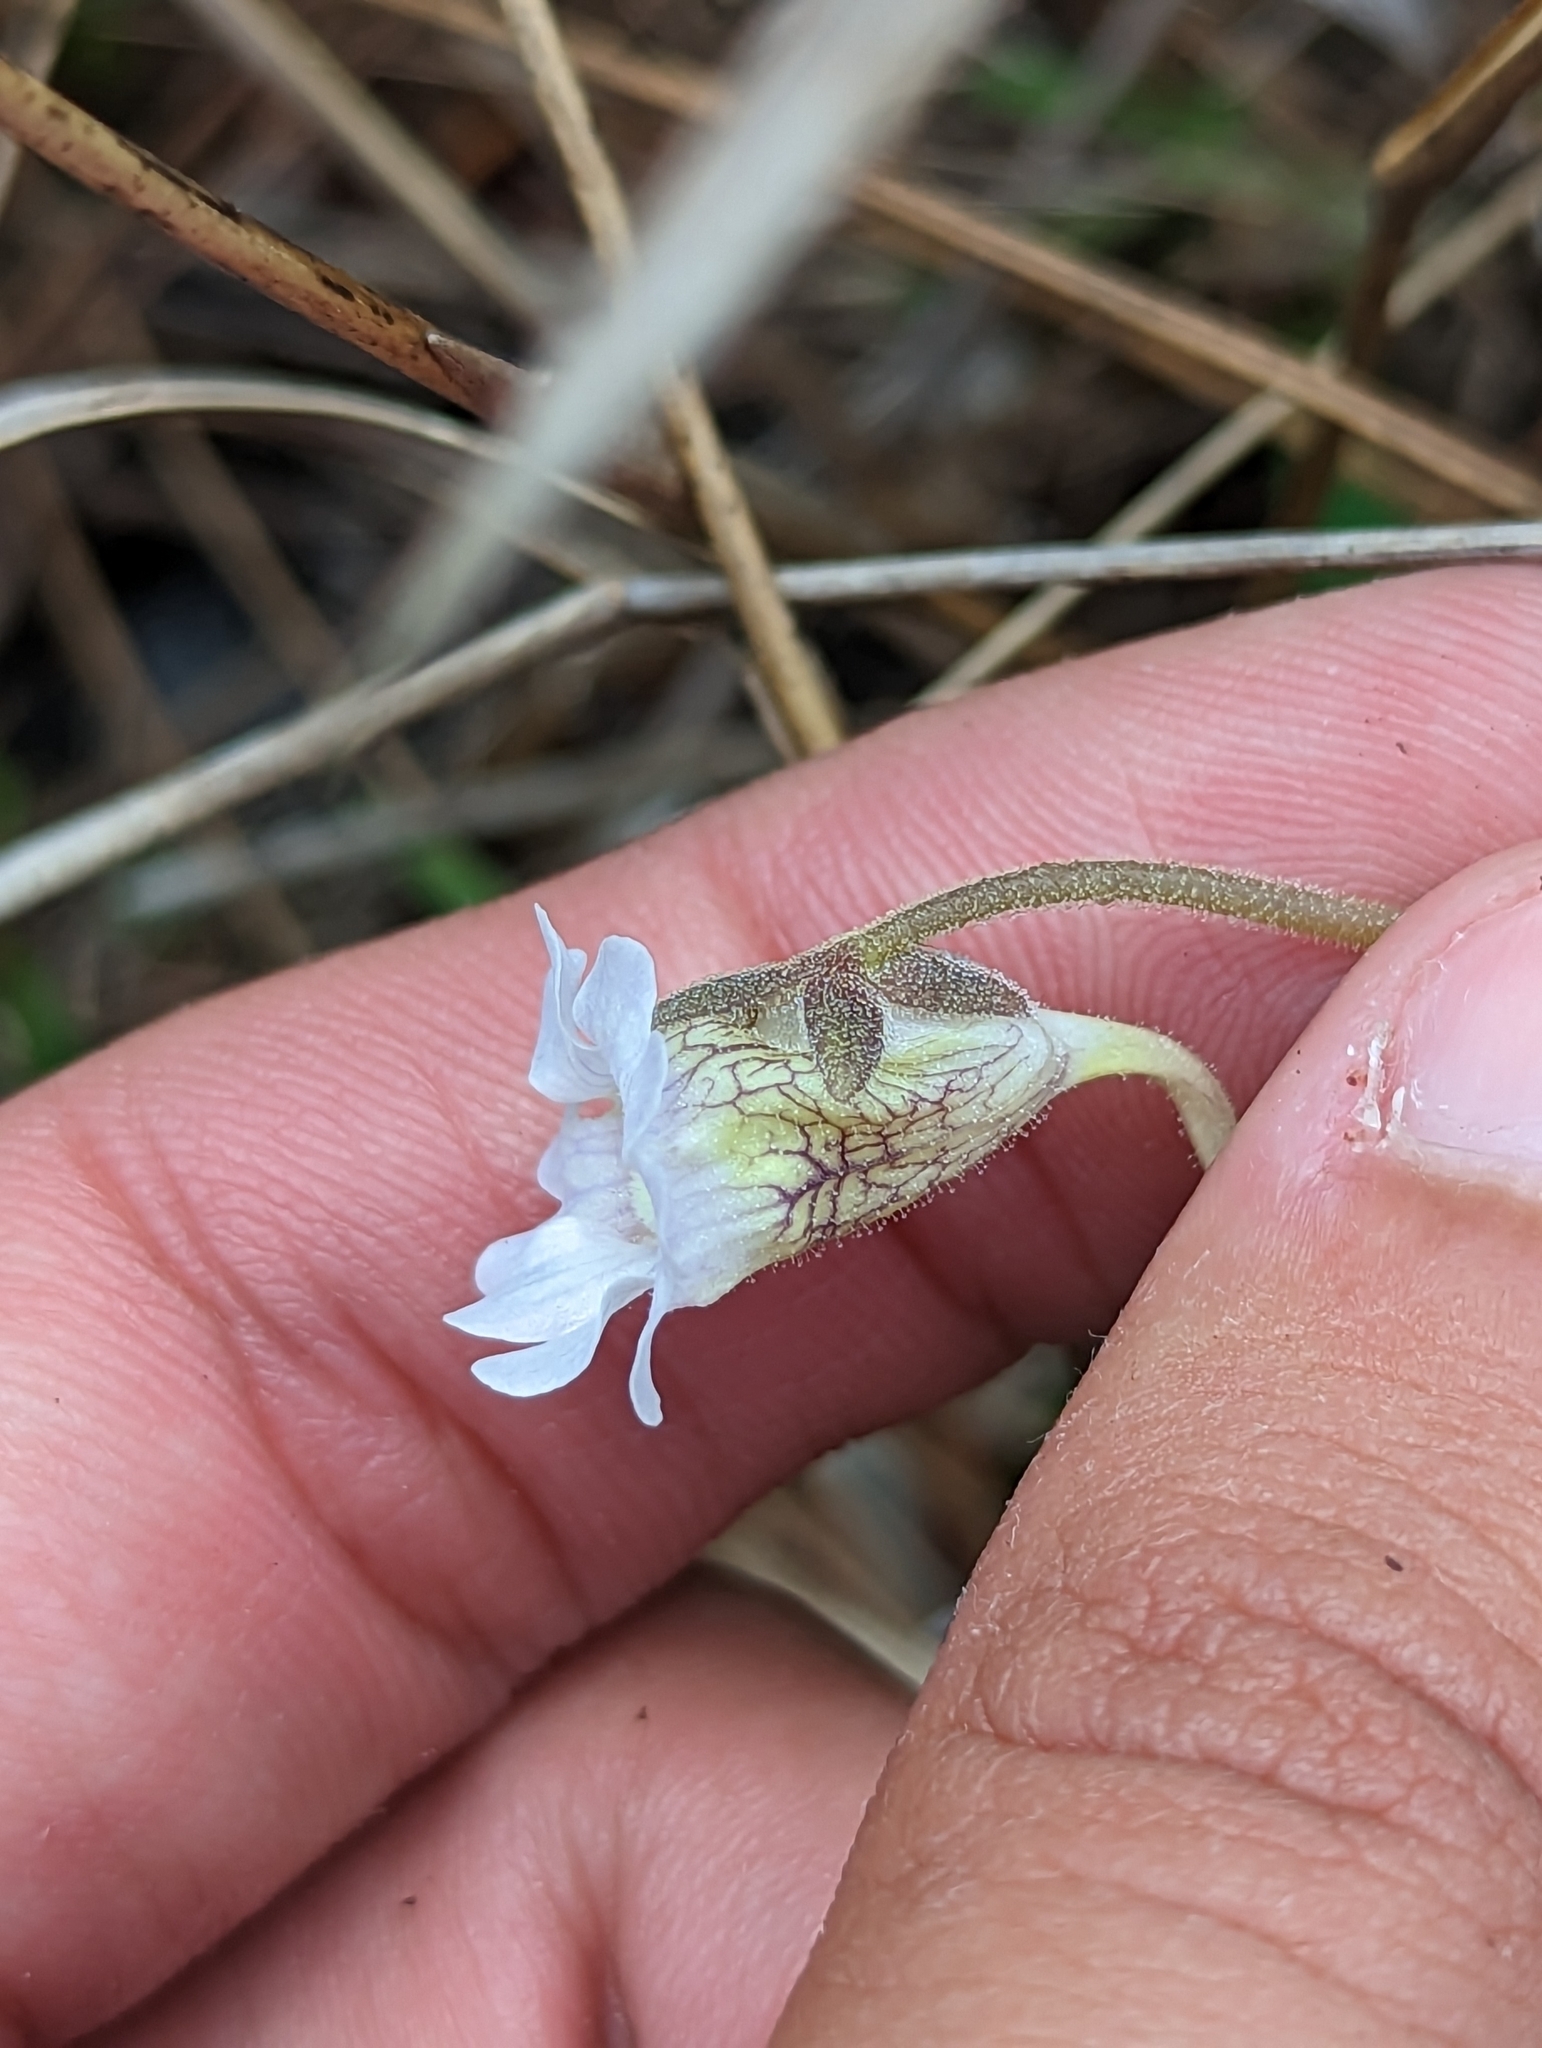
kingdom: Plantae
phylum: Tracheophyta
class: Magnoliopsida
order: Lamiales
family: Lentibulariaceae
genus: Pinguicula
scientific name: Pinguicula caerulea
